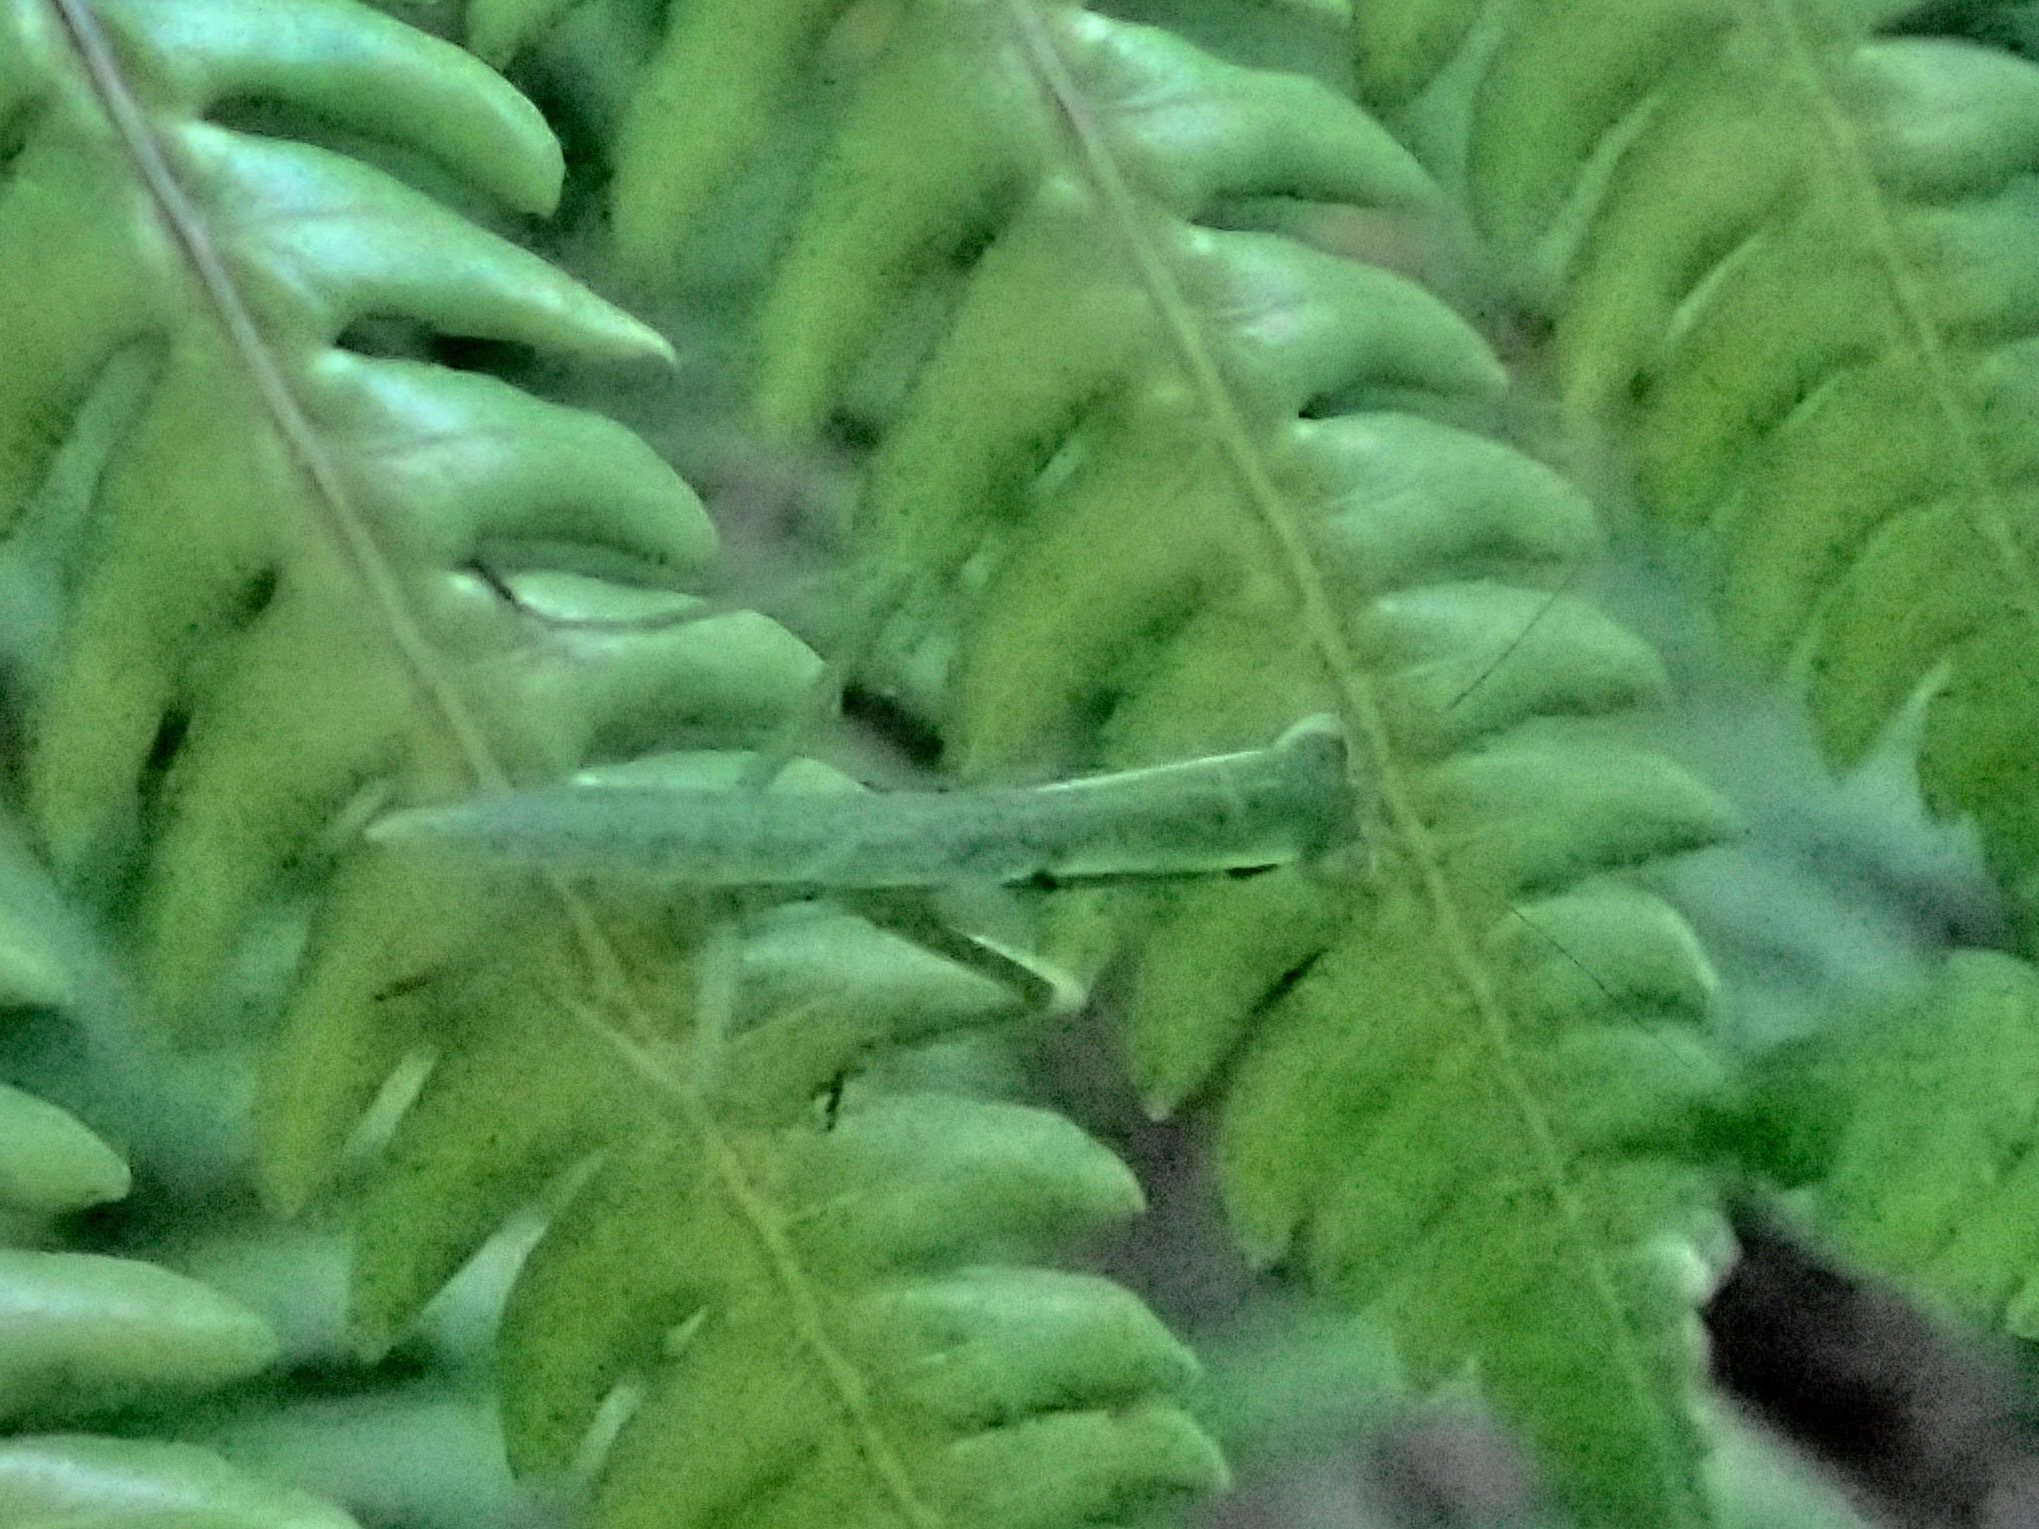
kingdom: Animalia
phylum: Arthropoda
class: Insecta
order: Mantodea
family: Mantidae
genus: Orthodera
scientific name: Orthodera novaezealandiae
